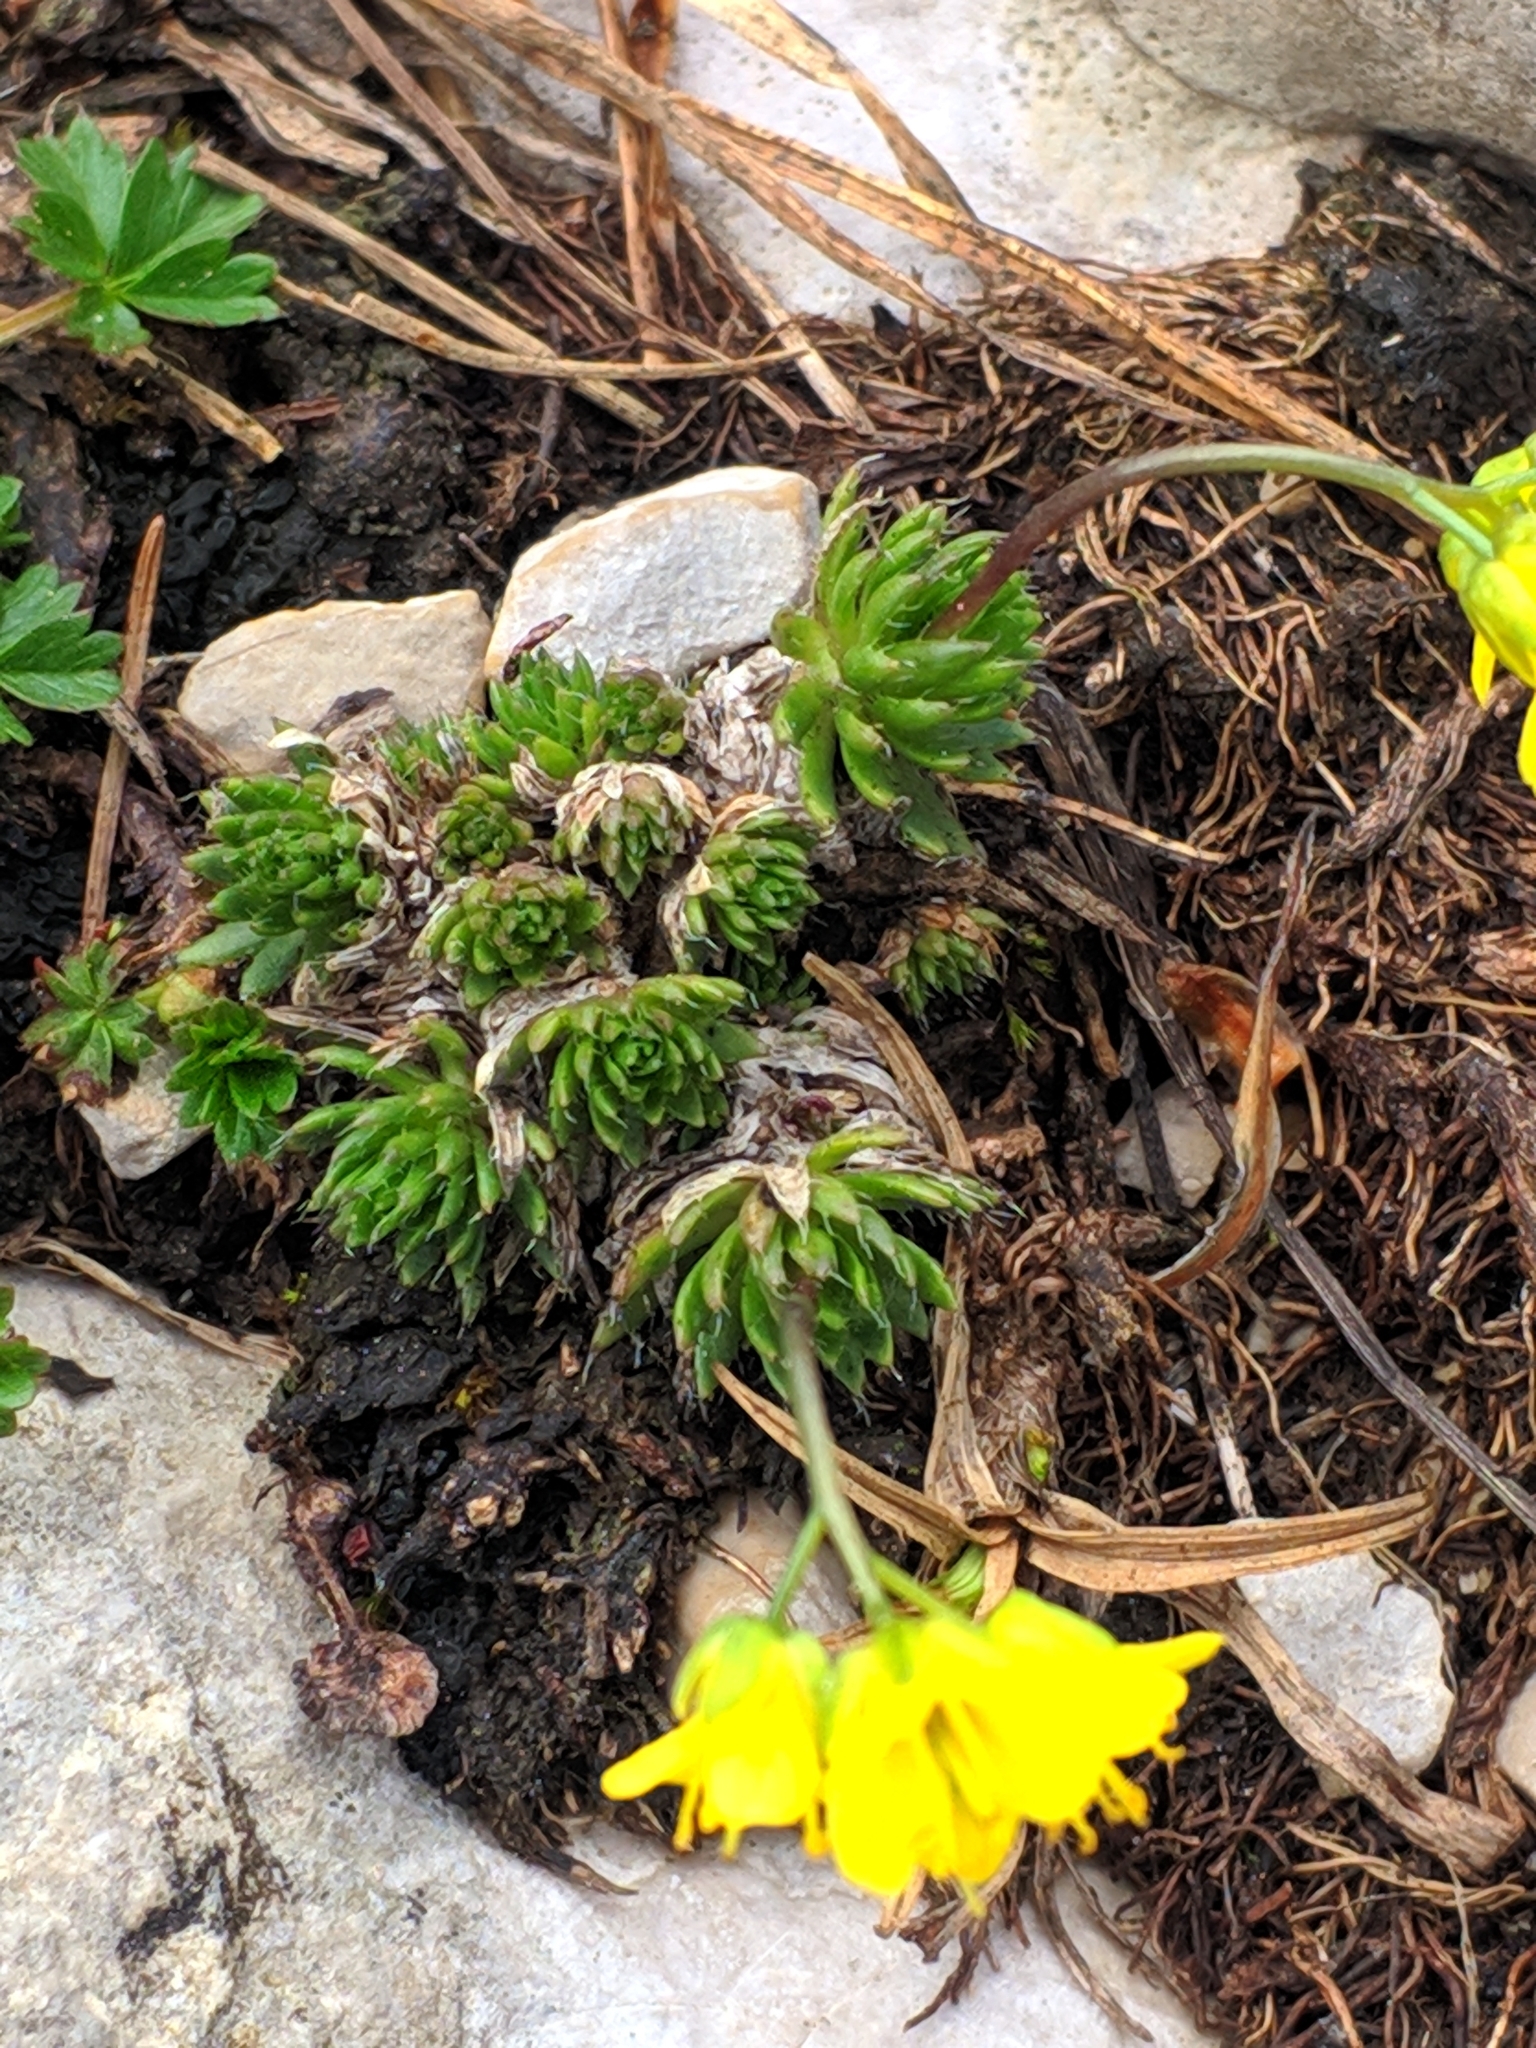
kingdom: Plantae
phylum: Tracheophyta
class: Magnoliopsida
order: Brassicales
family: Brassicaceae
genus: Draba
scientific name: Draba aizoides
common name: Yellow whitlowgrass
